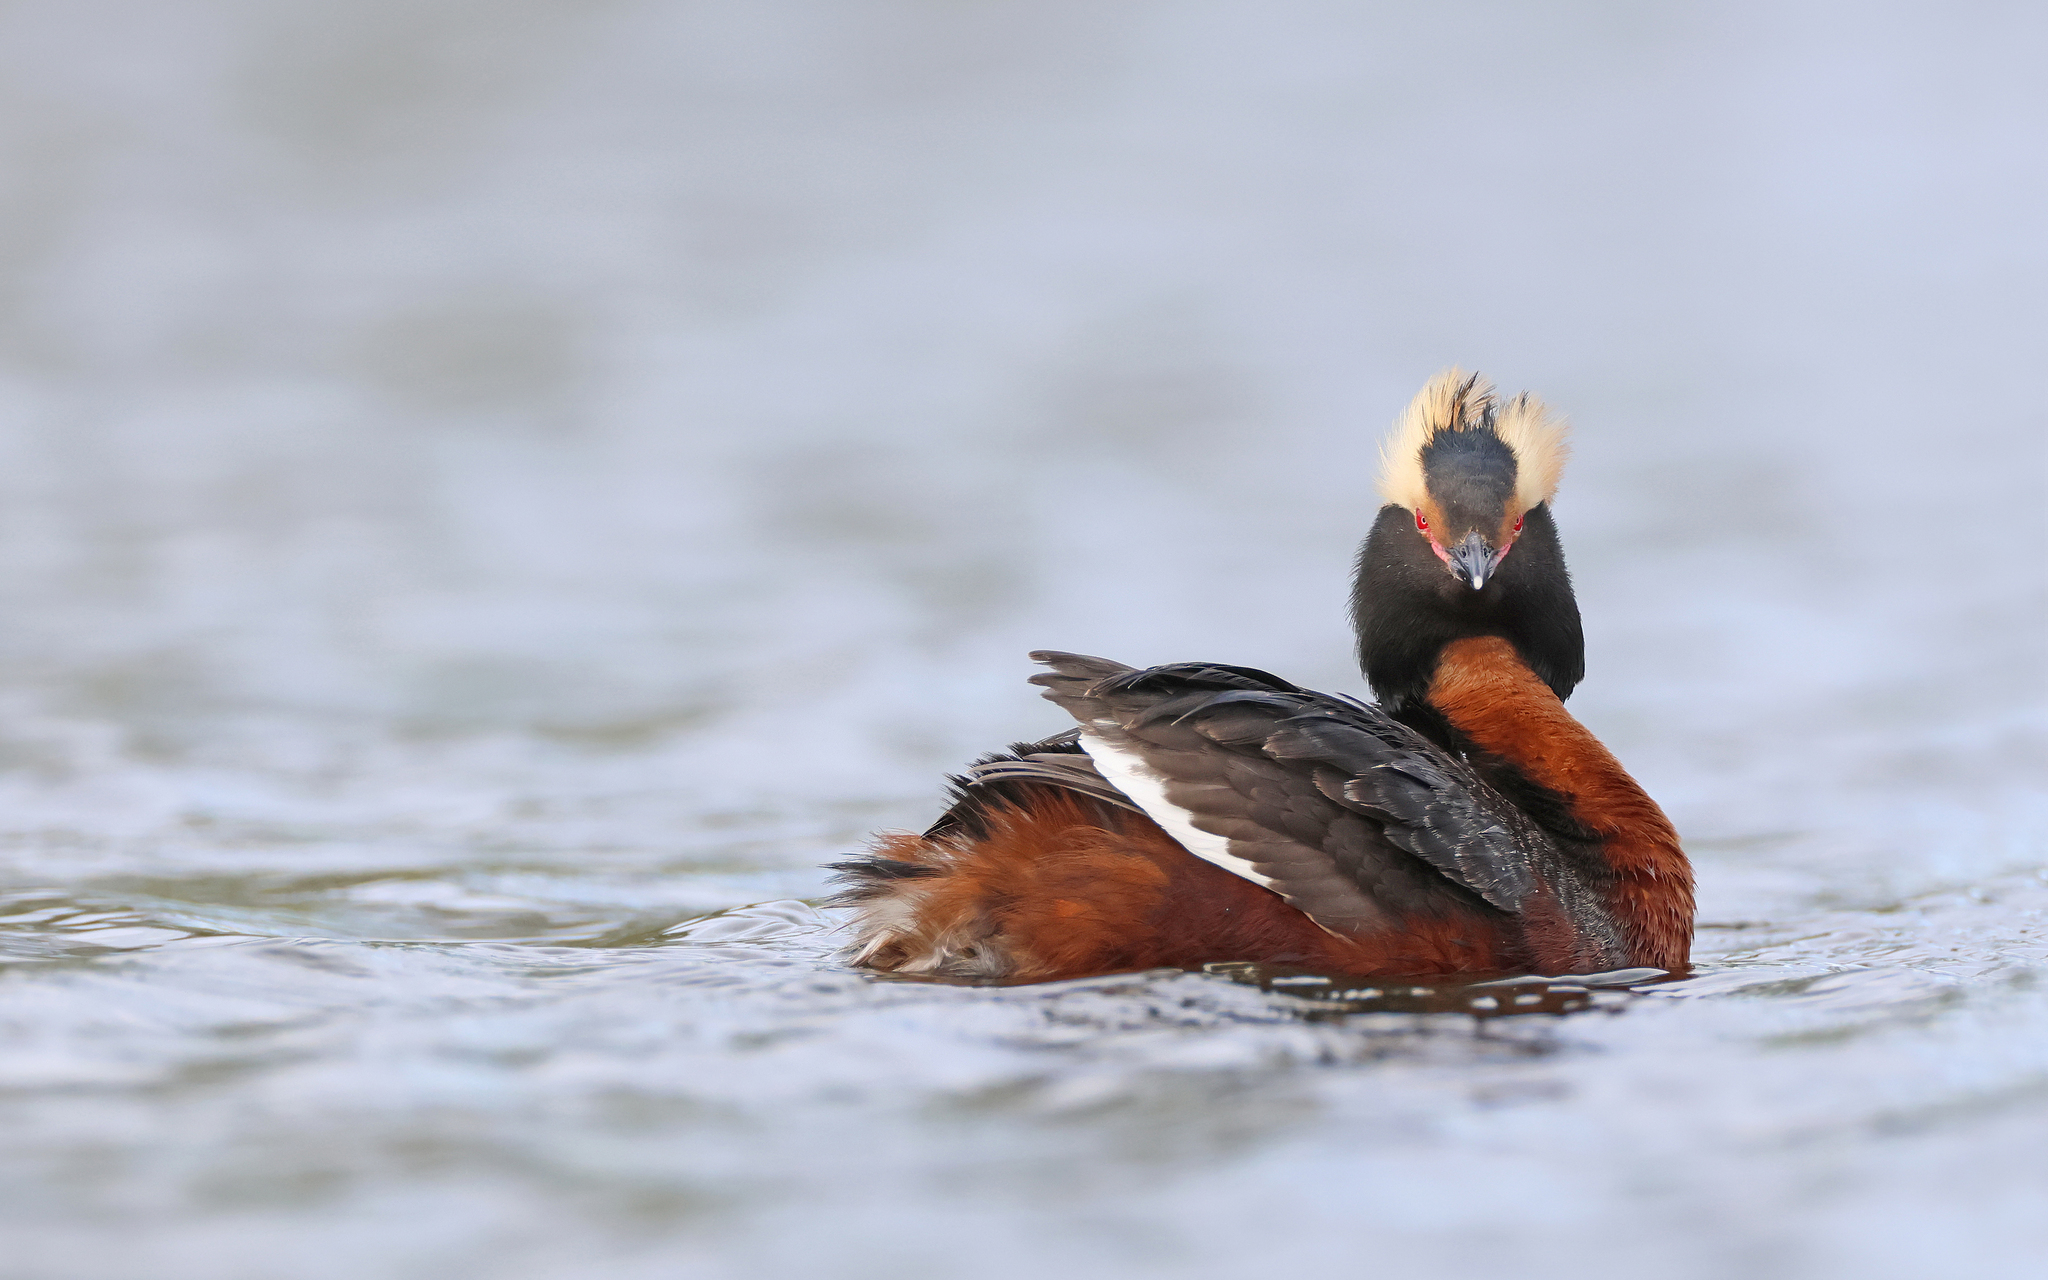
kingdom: Animalia
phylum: Chordata
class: Aves
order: Podicipediformes
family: Podicipedidae
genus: Podiceps
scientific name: Podiceps auritus
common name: Horned grebe
